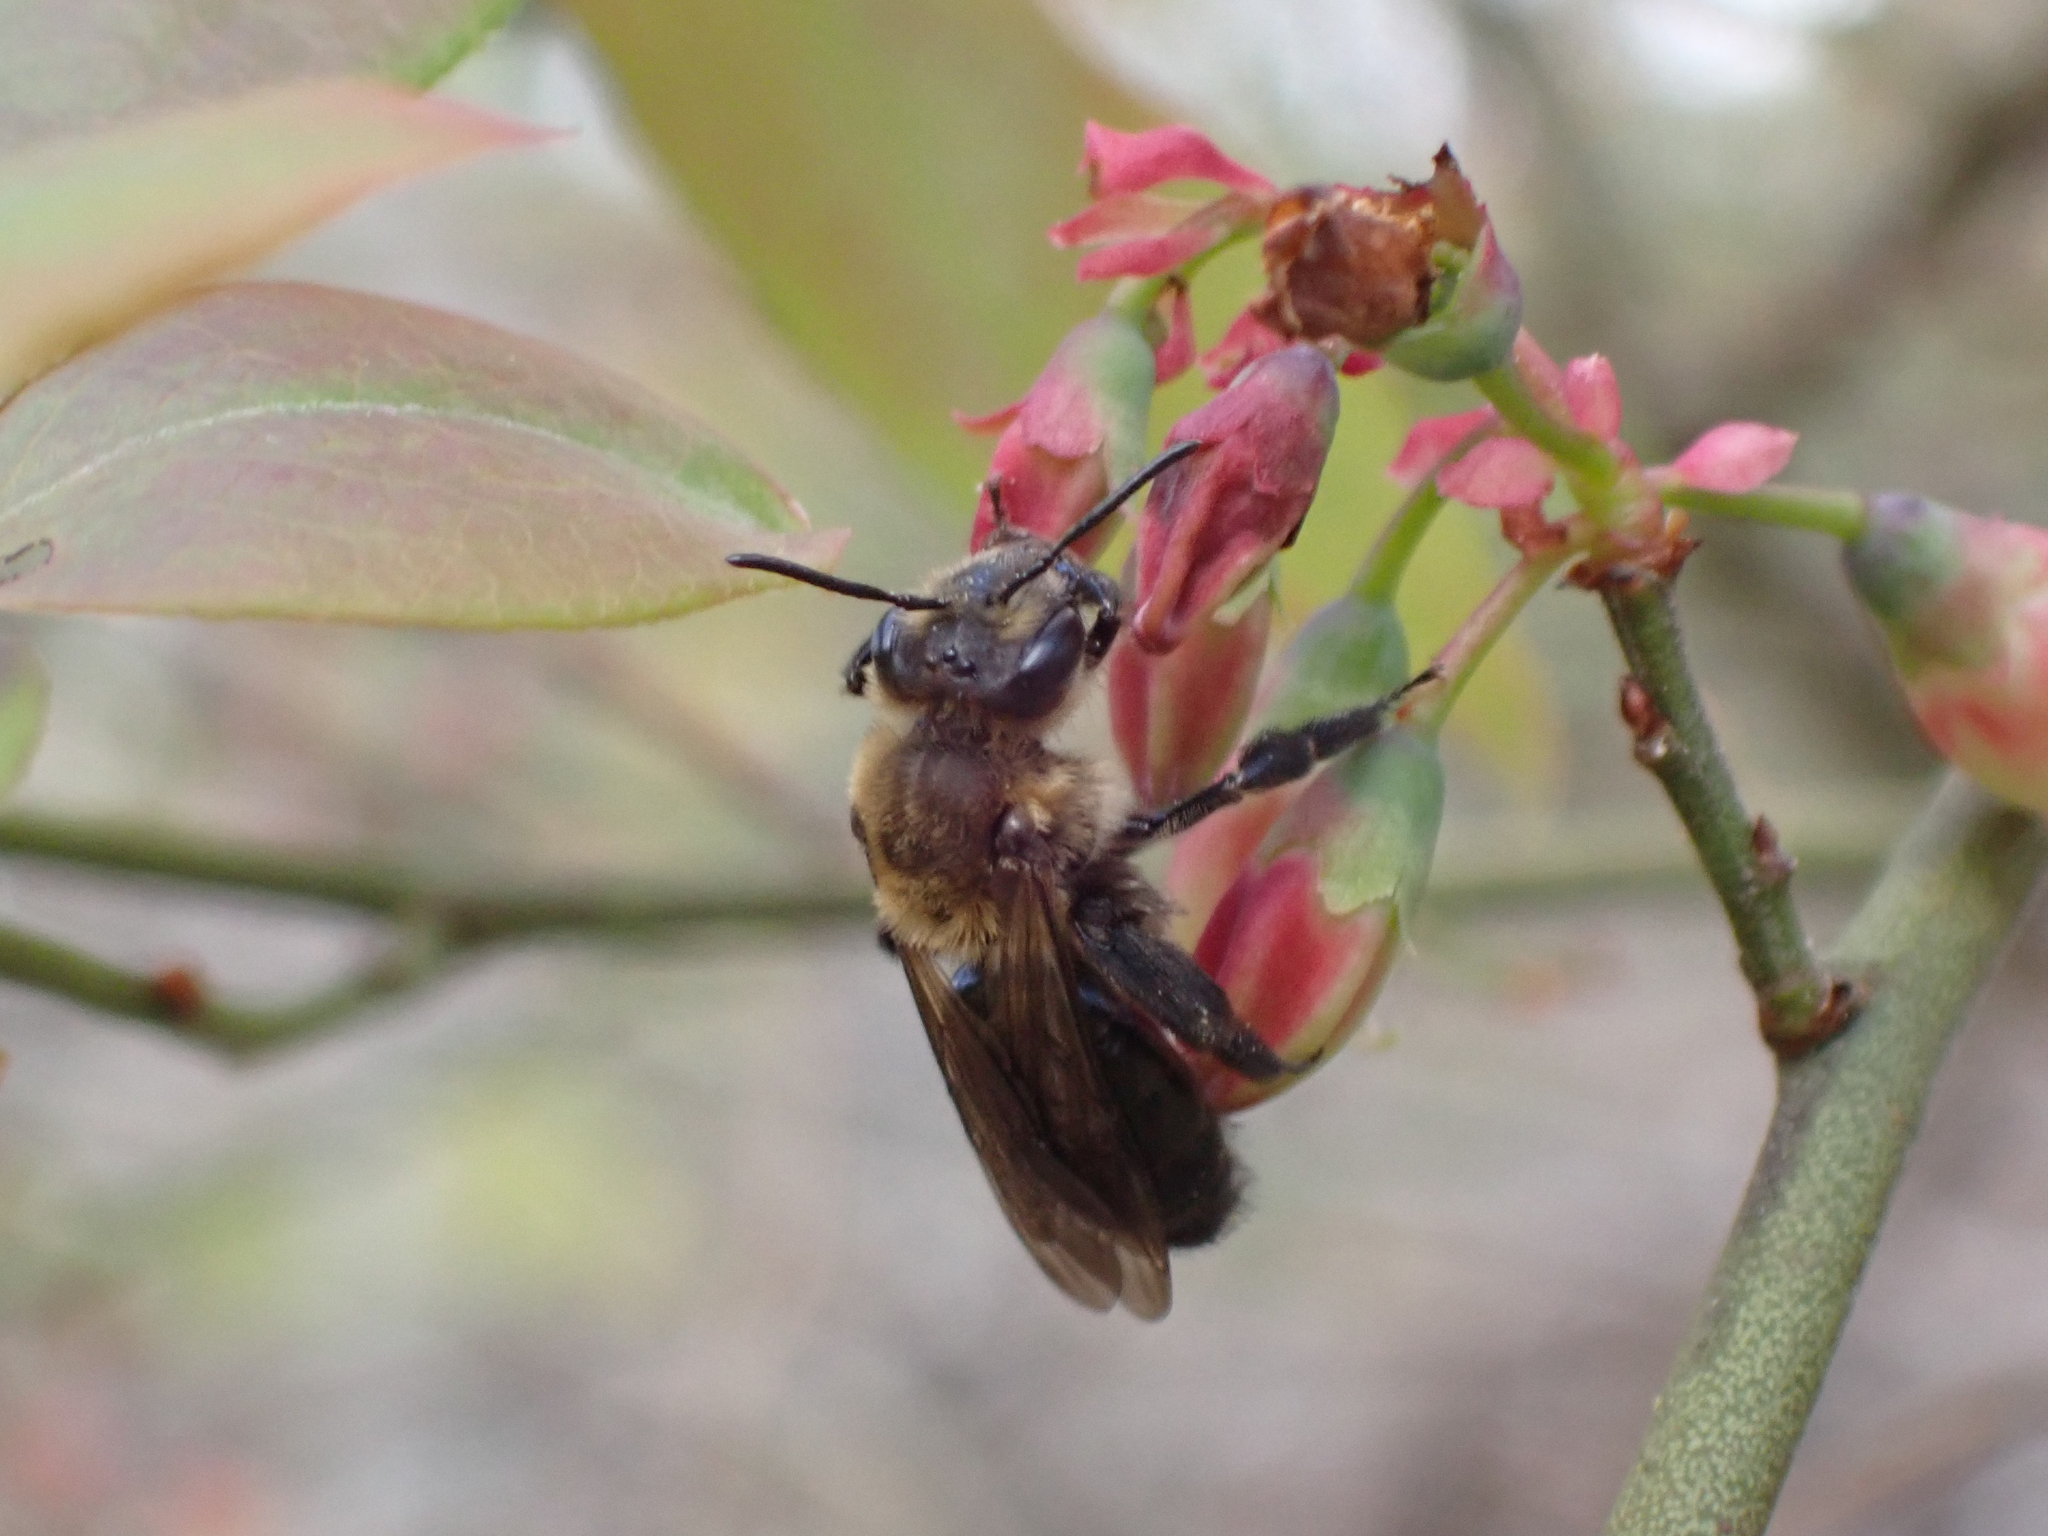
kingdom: Animalia
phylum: Arthropoda
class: Insecta
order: Hymenoptera
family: Andrenidae
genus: Andrena
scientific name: Andrena vicina
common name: Neighborly mining bee
